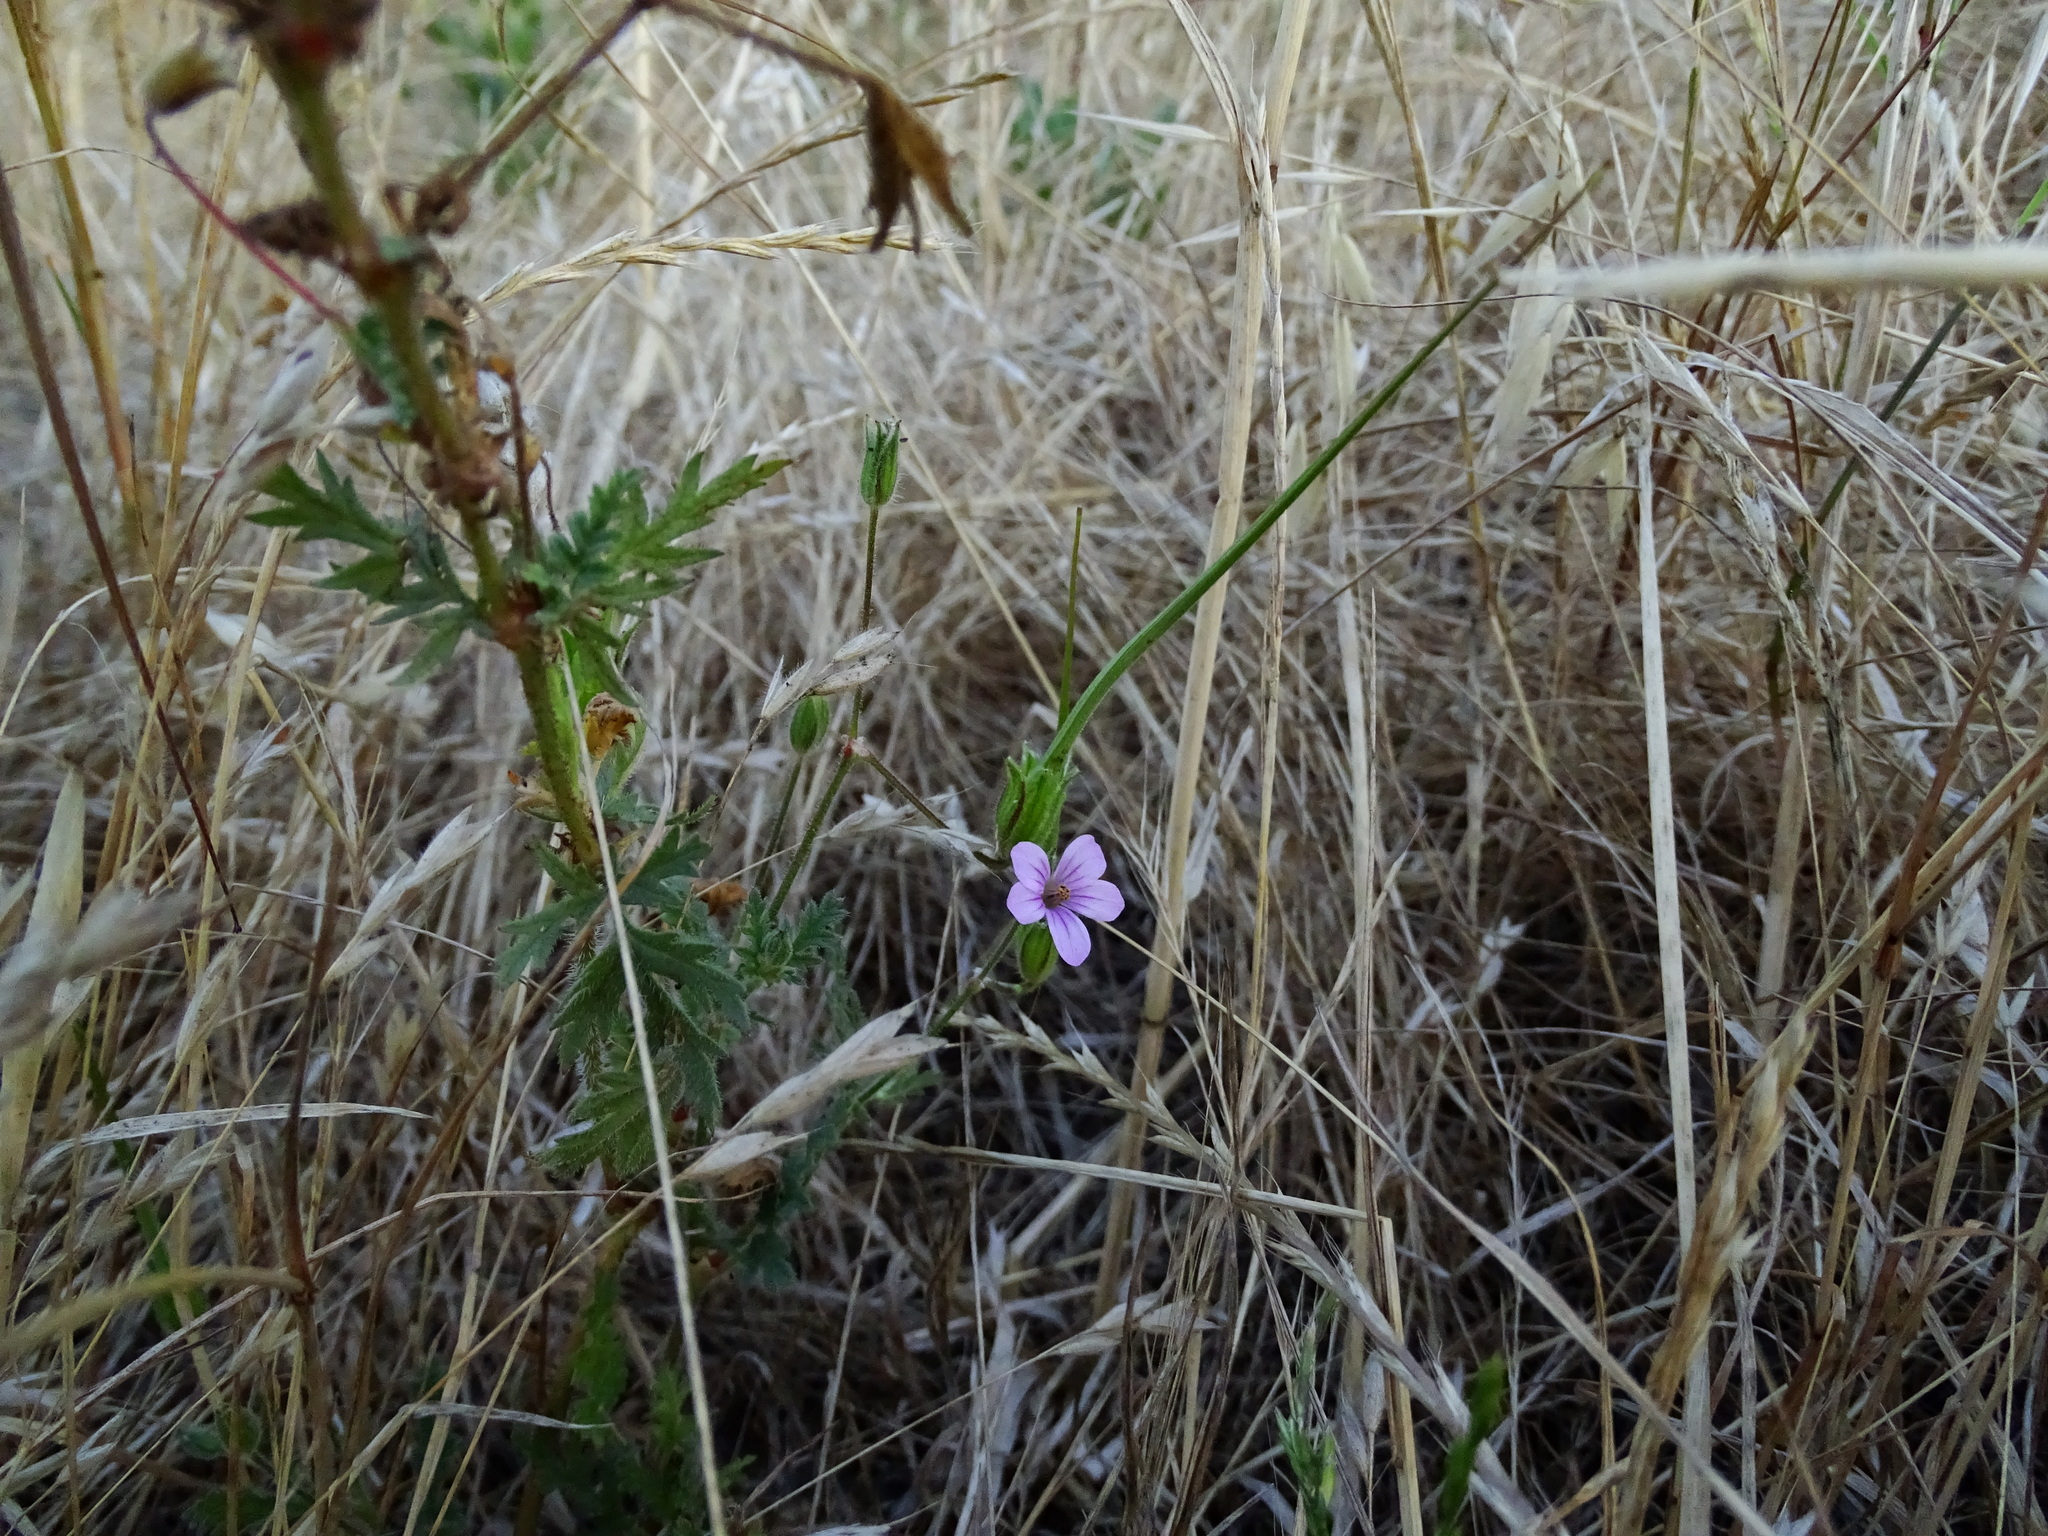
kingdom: Plantae
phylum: Tracheophyta
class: Magnoliopsida
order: Geraniales
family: Geraniaceae
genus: Erodium
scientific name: Erodium botrys
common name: Mediterranean stork's-bill
